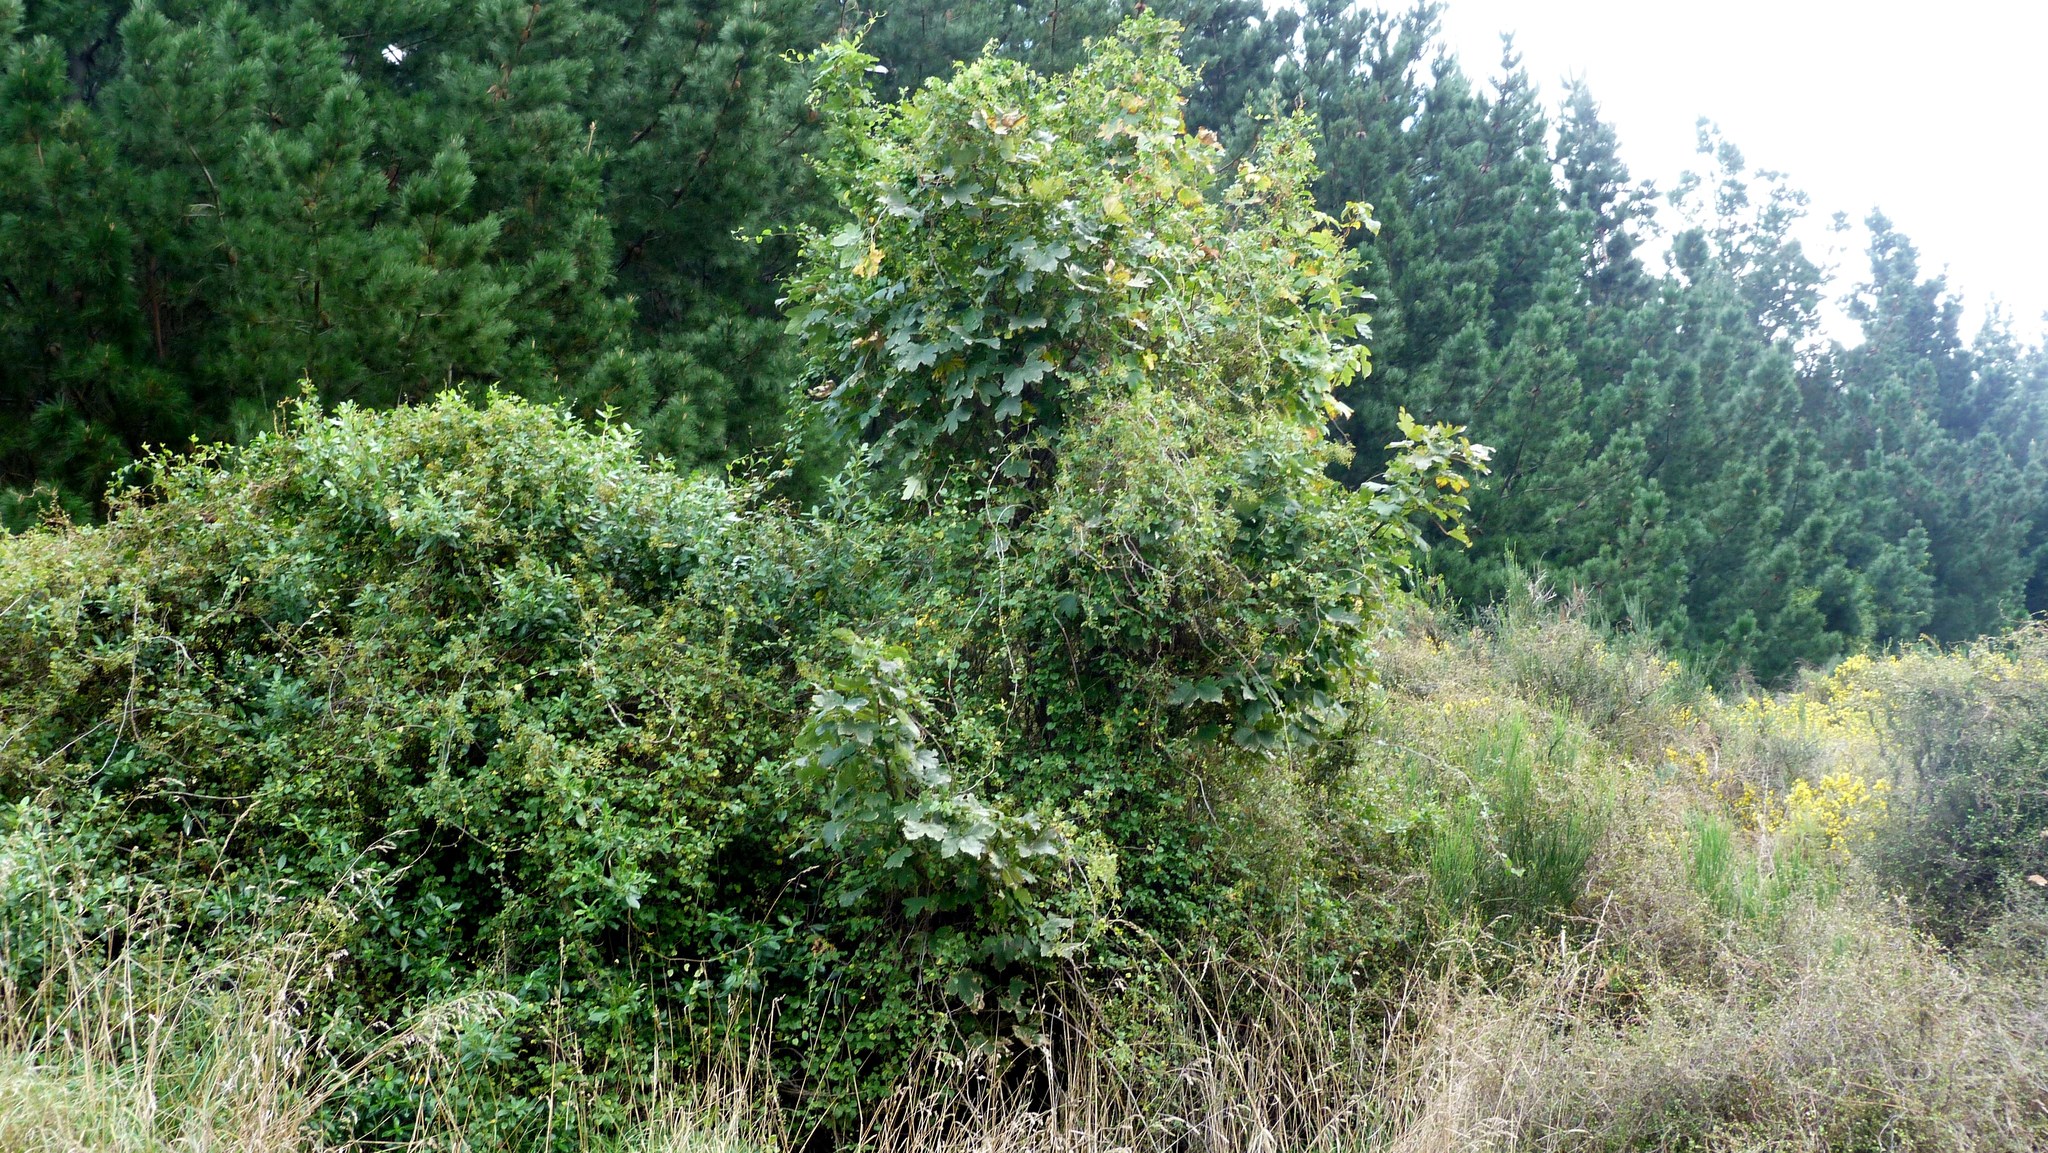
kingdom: Plantae
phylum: Tracheophyta
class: Magnoliopsida
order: Sapindales
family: Sapindaceae
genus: Acer
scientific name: Acer pseudoplatanus
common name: Sycamore
